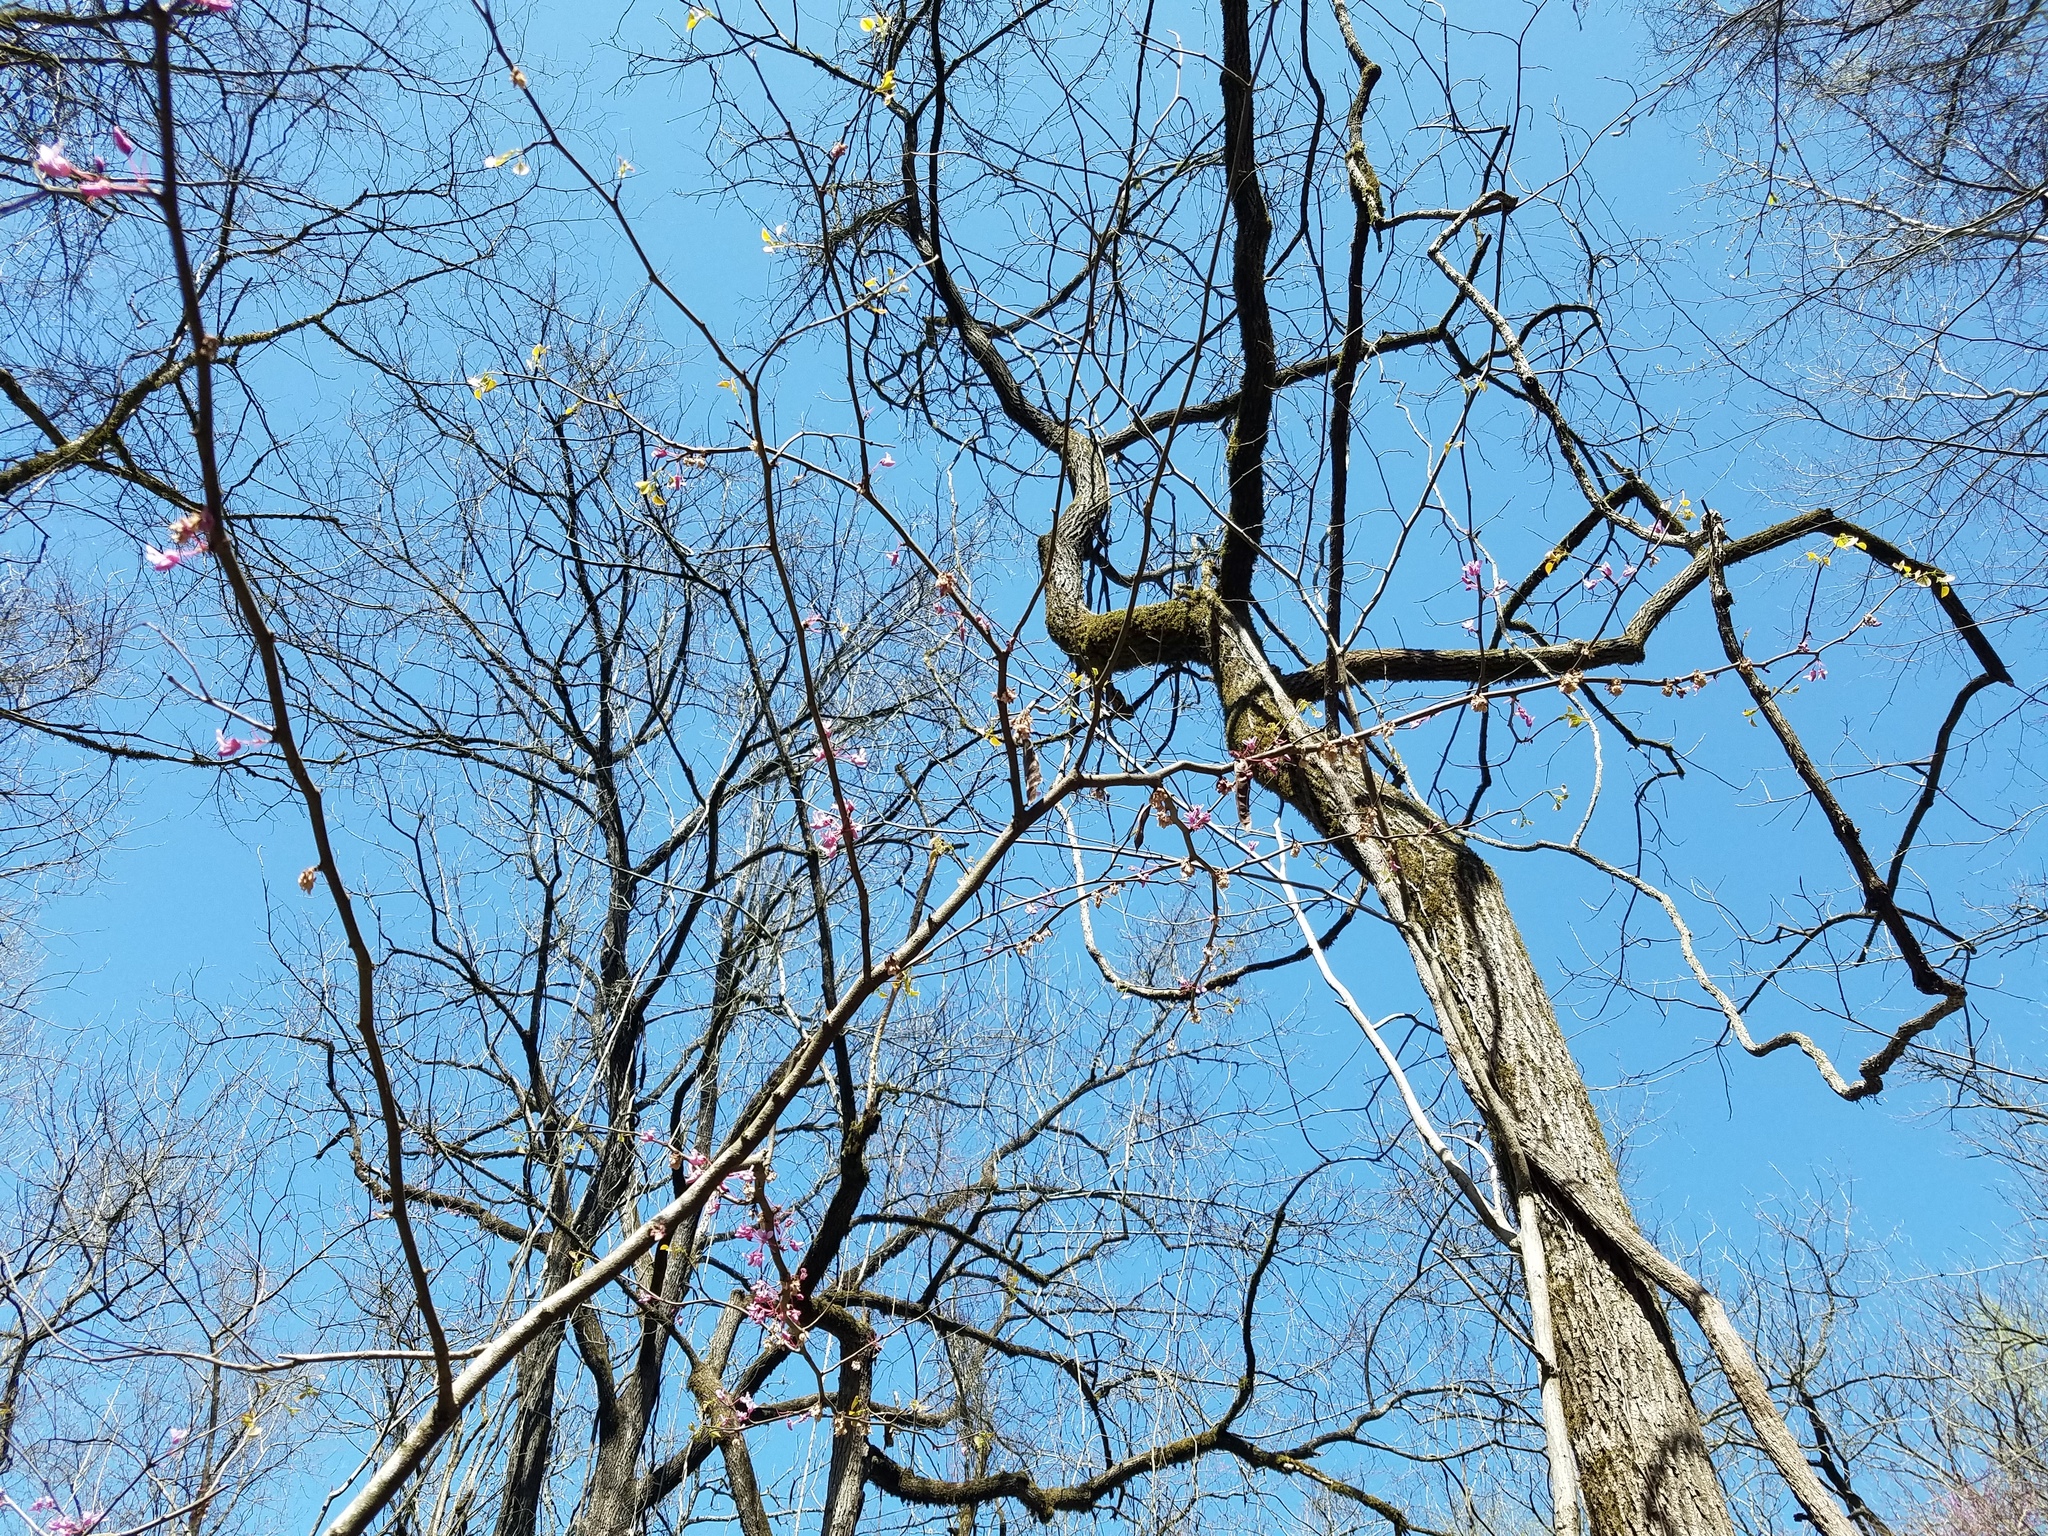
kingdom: Plantae
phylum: Tracheophyta
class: Magnoliopsida
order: Fabales
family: Fabaceae
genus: Cercis
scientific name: Cercis canadensis
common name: Eastern redbud
